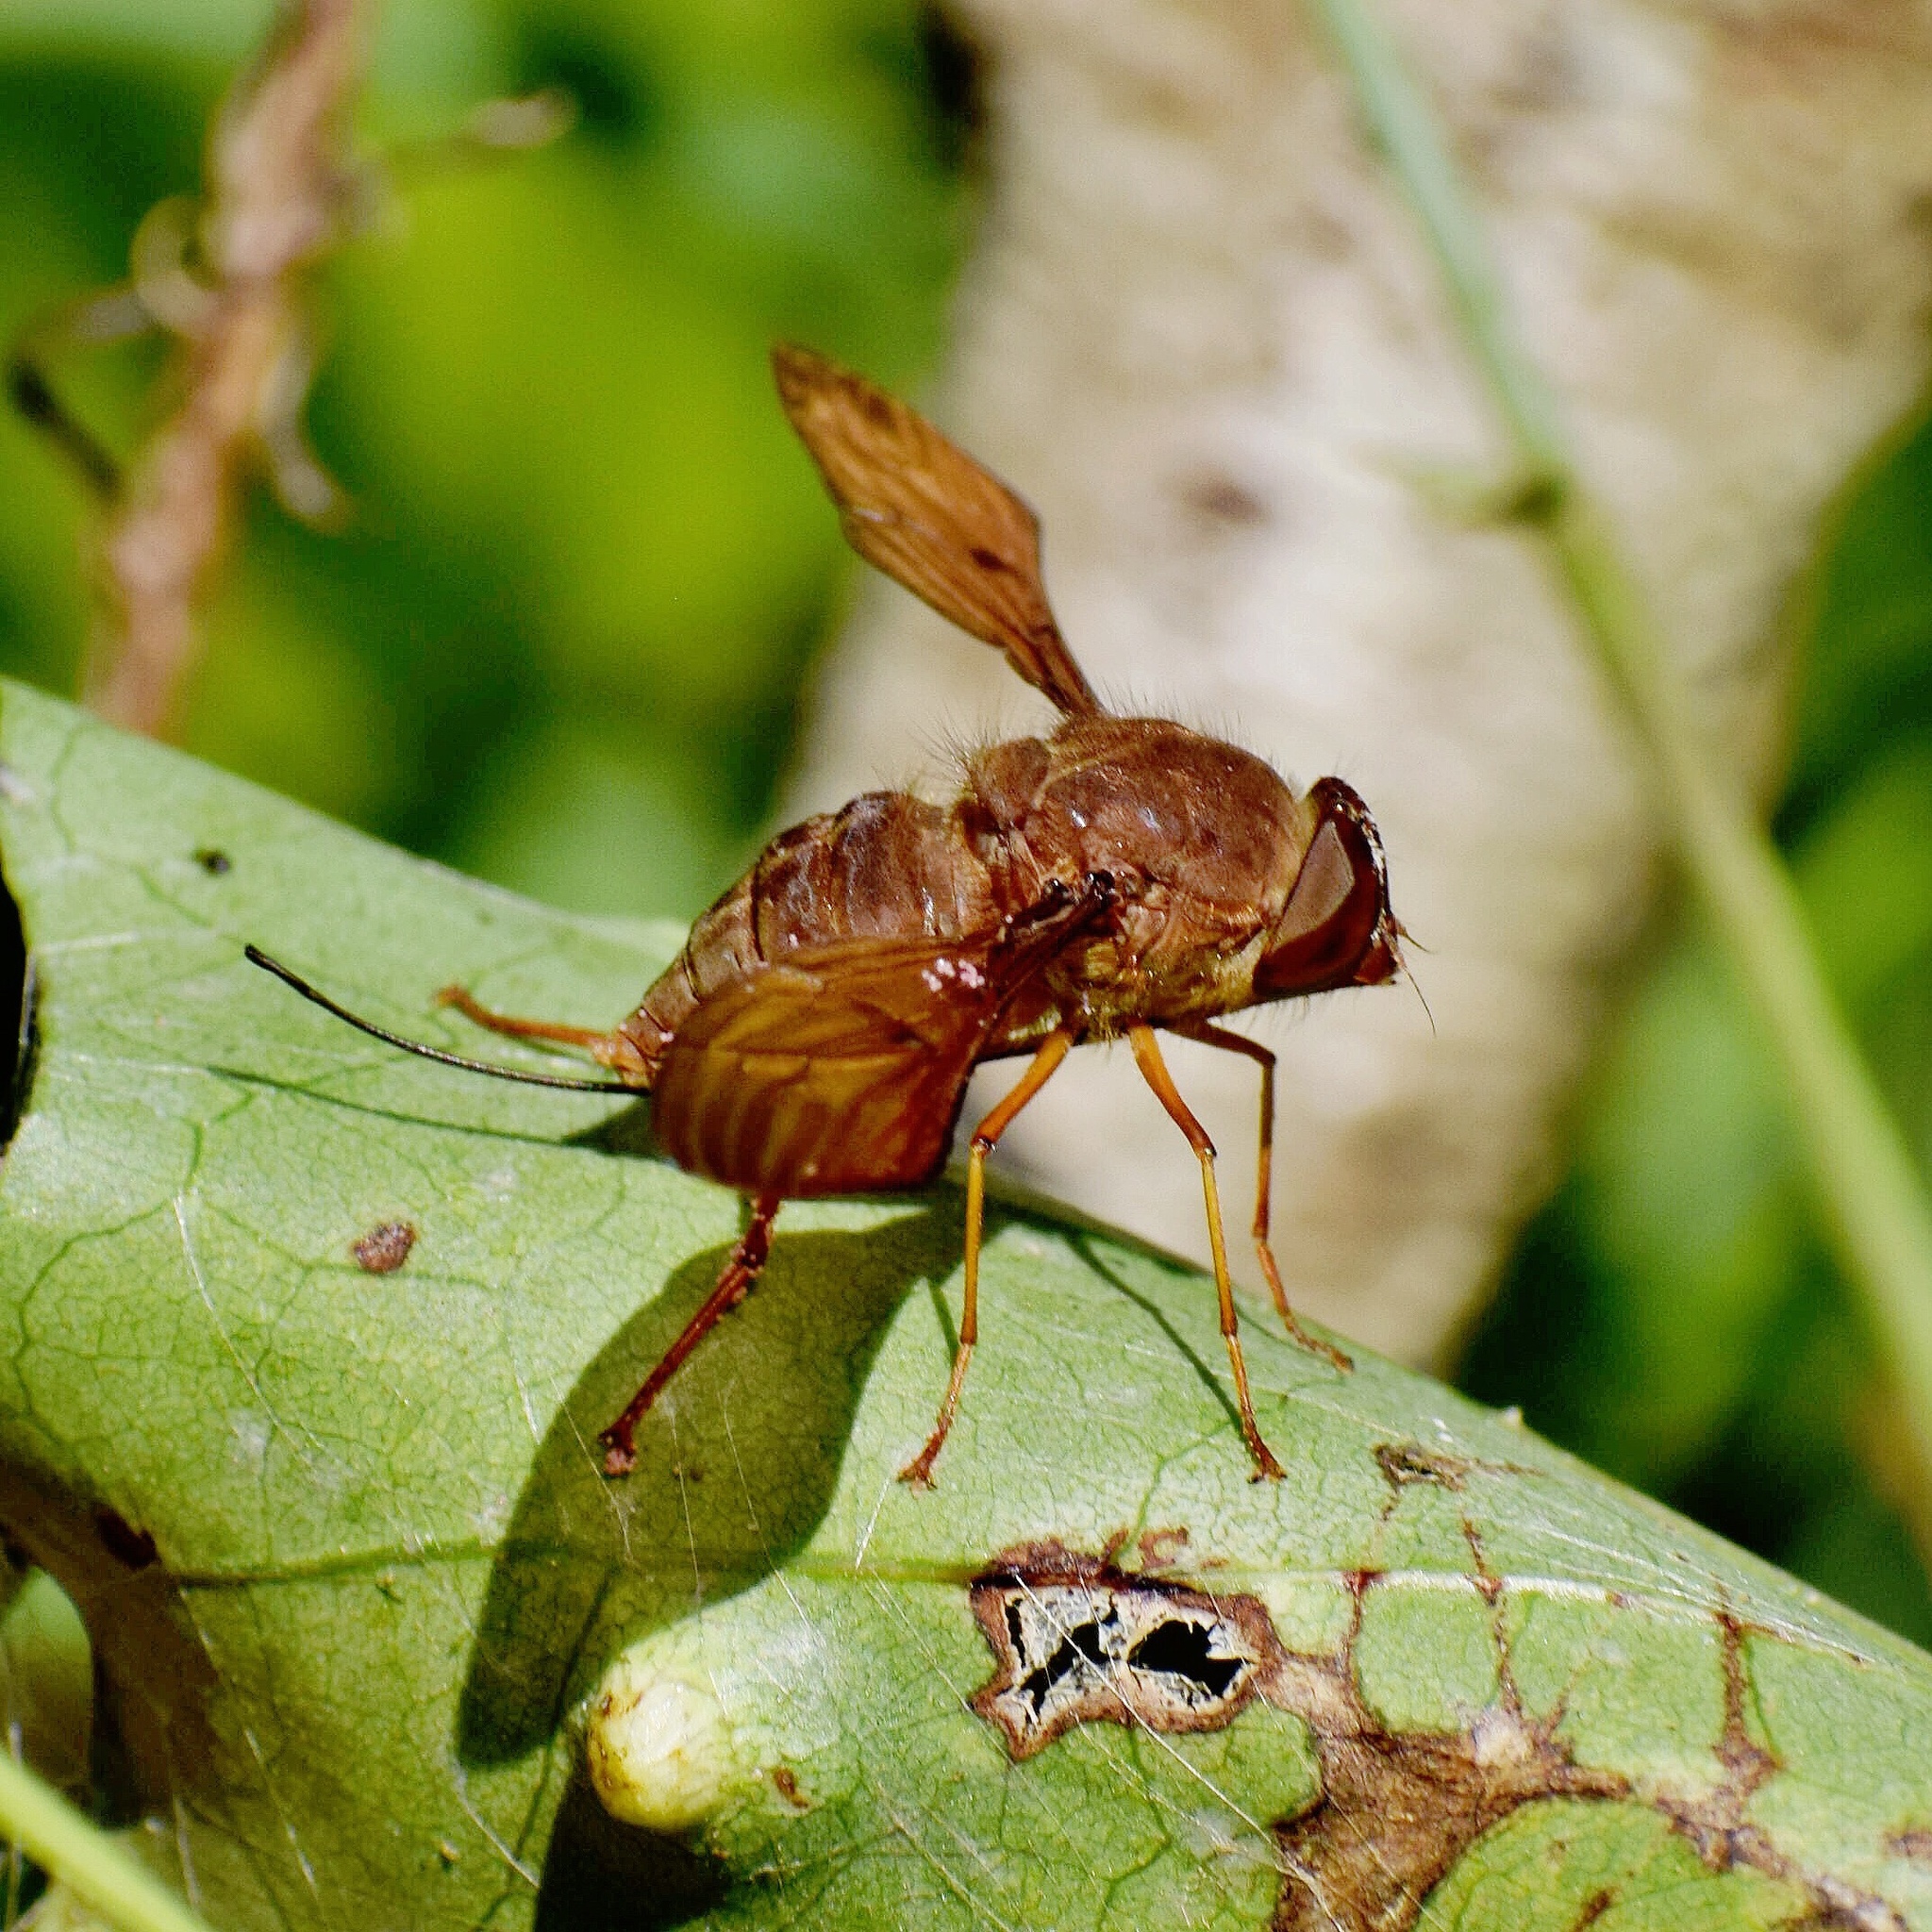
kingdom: Animalia
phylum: Arthropoda
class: Insecta
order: Diptera
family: Nemestrinidae
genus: Stenobasipteron
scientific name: Stenobasipteron wiedemanni
